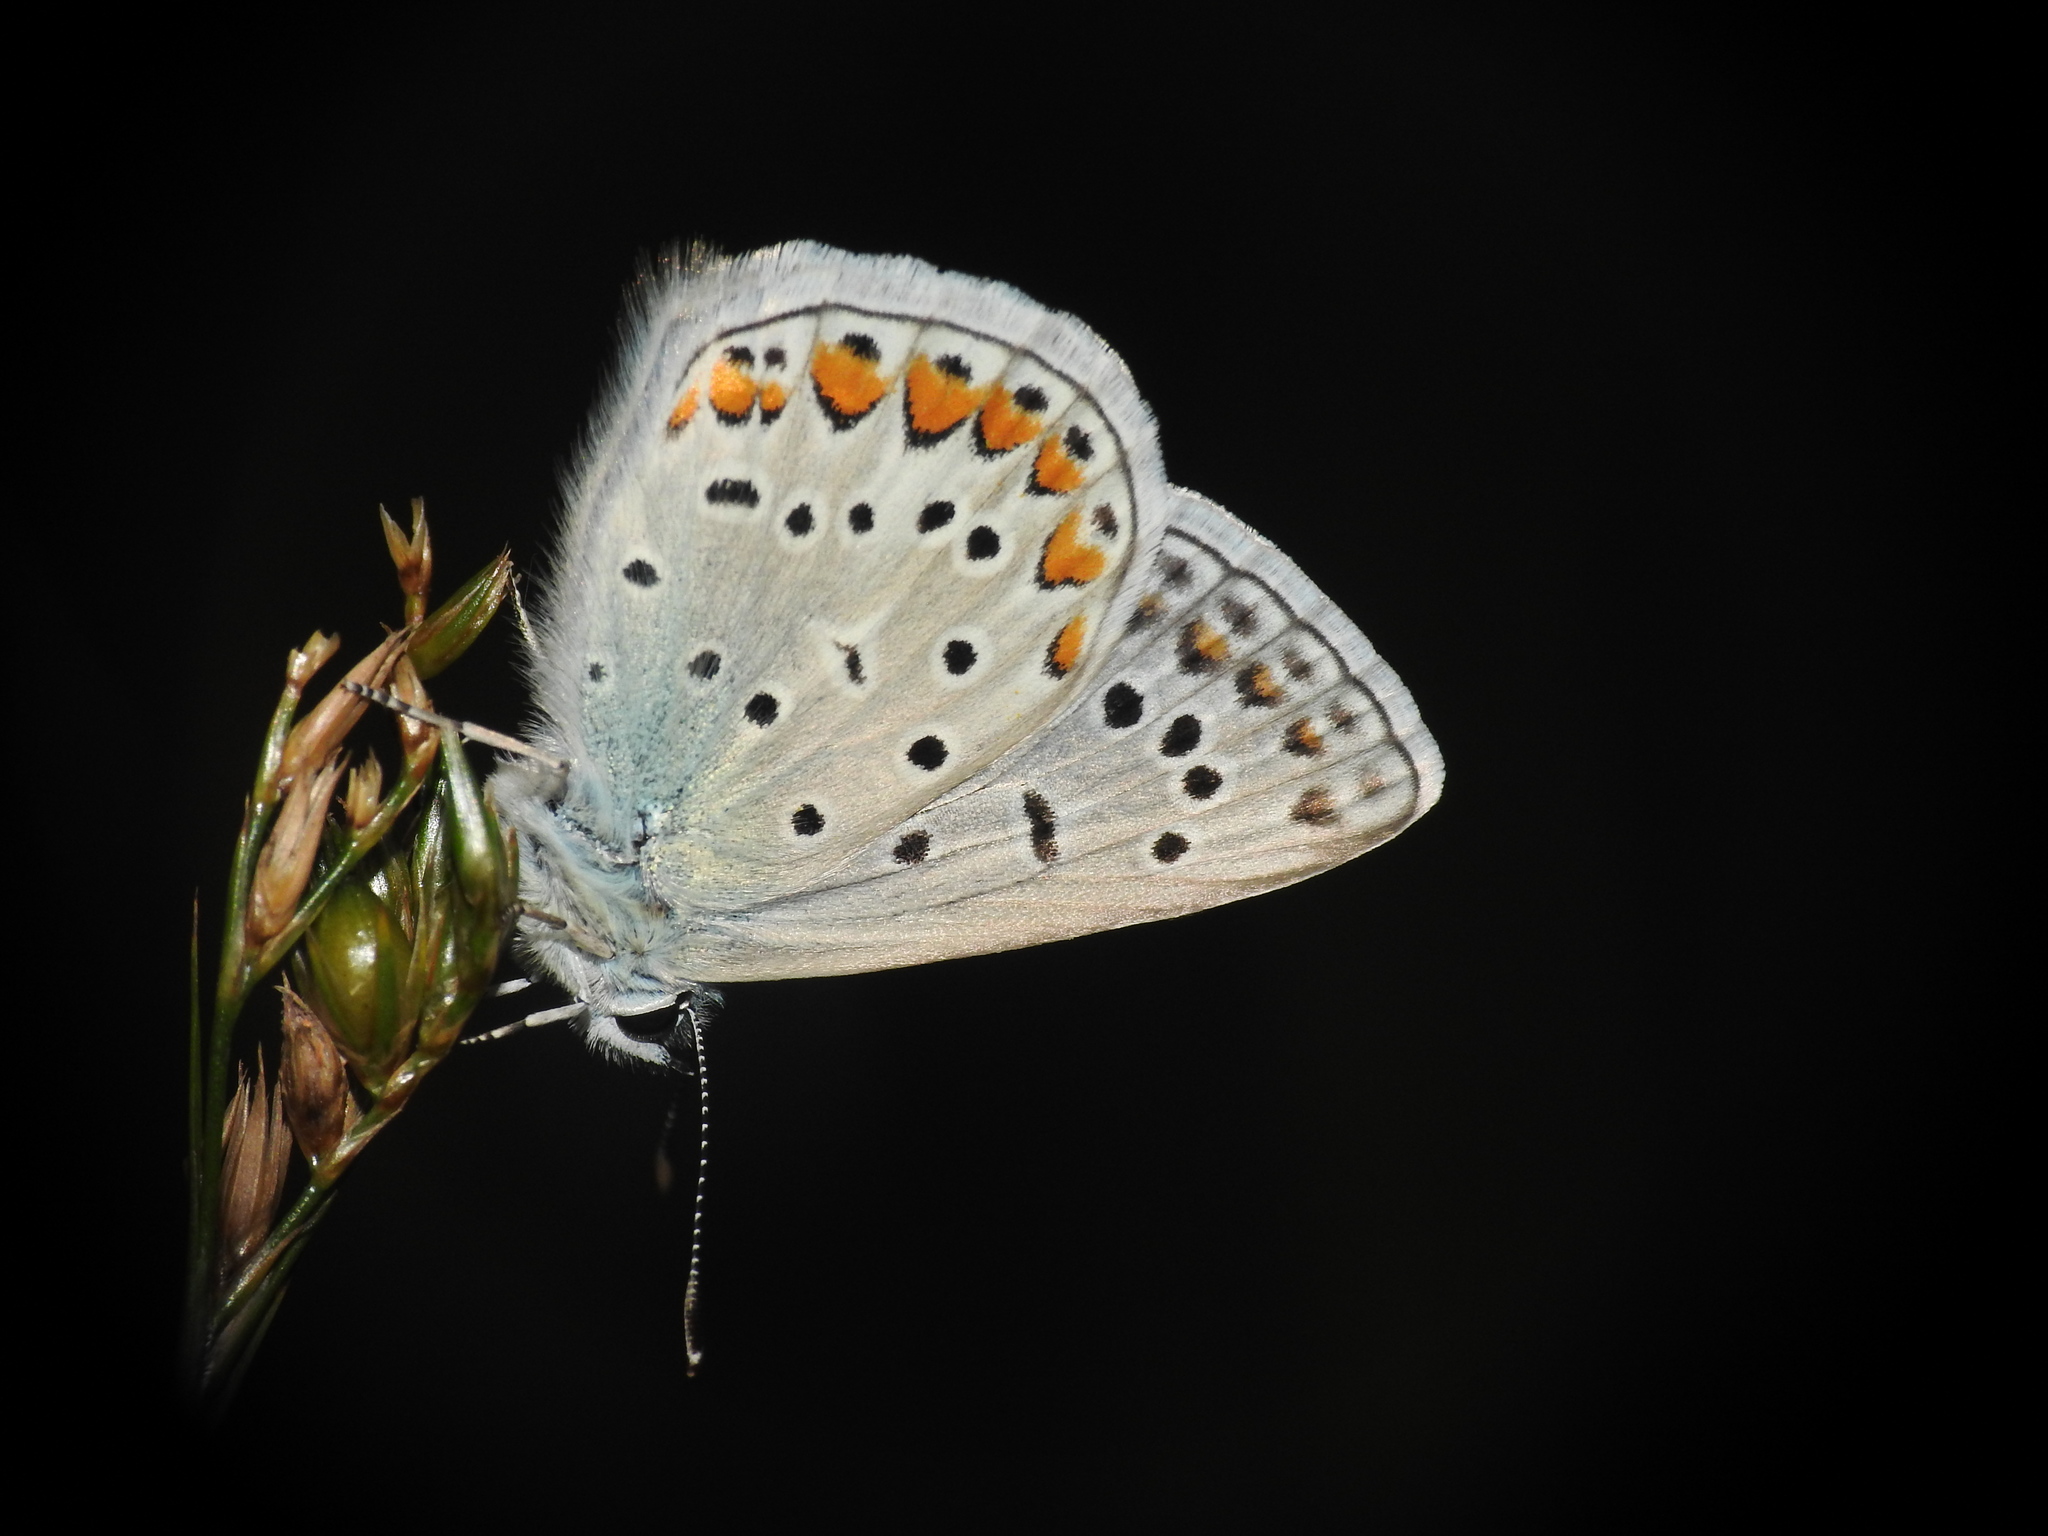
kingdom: Animalia
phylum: Arthropoda
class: Insecta
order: Lepidoptera
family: Lycaenidae
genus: Polyommatus
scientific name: Polyommatus icarus
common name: Common blue
